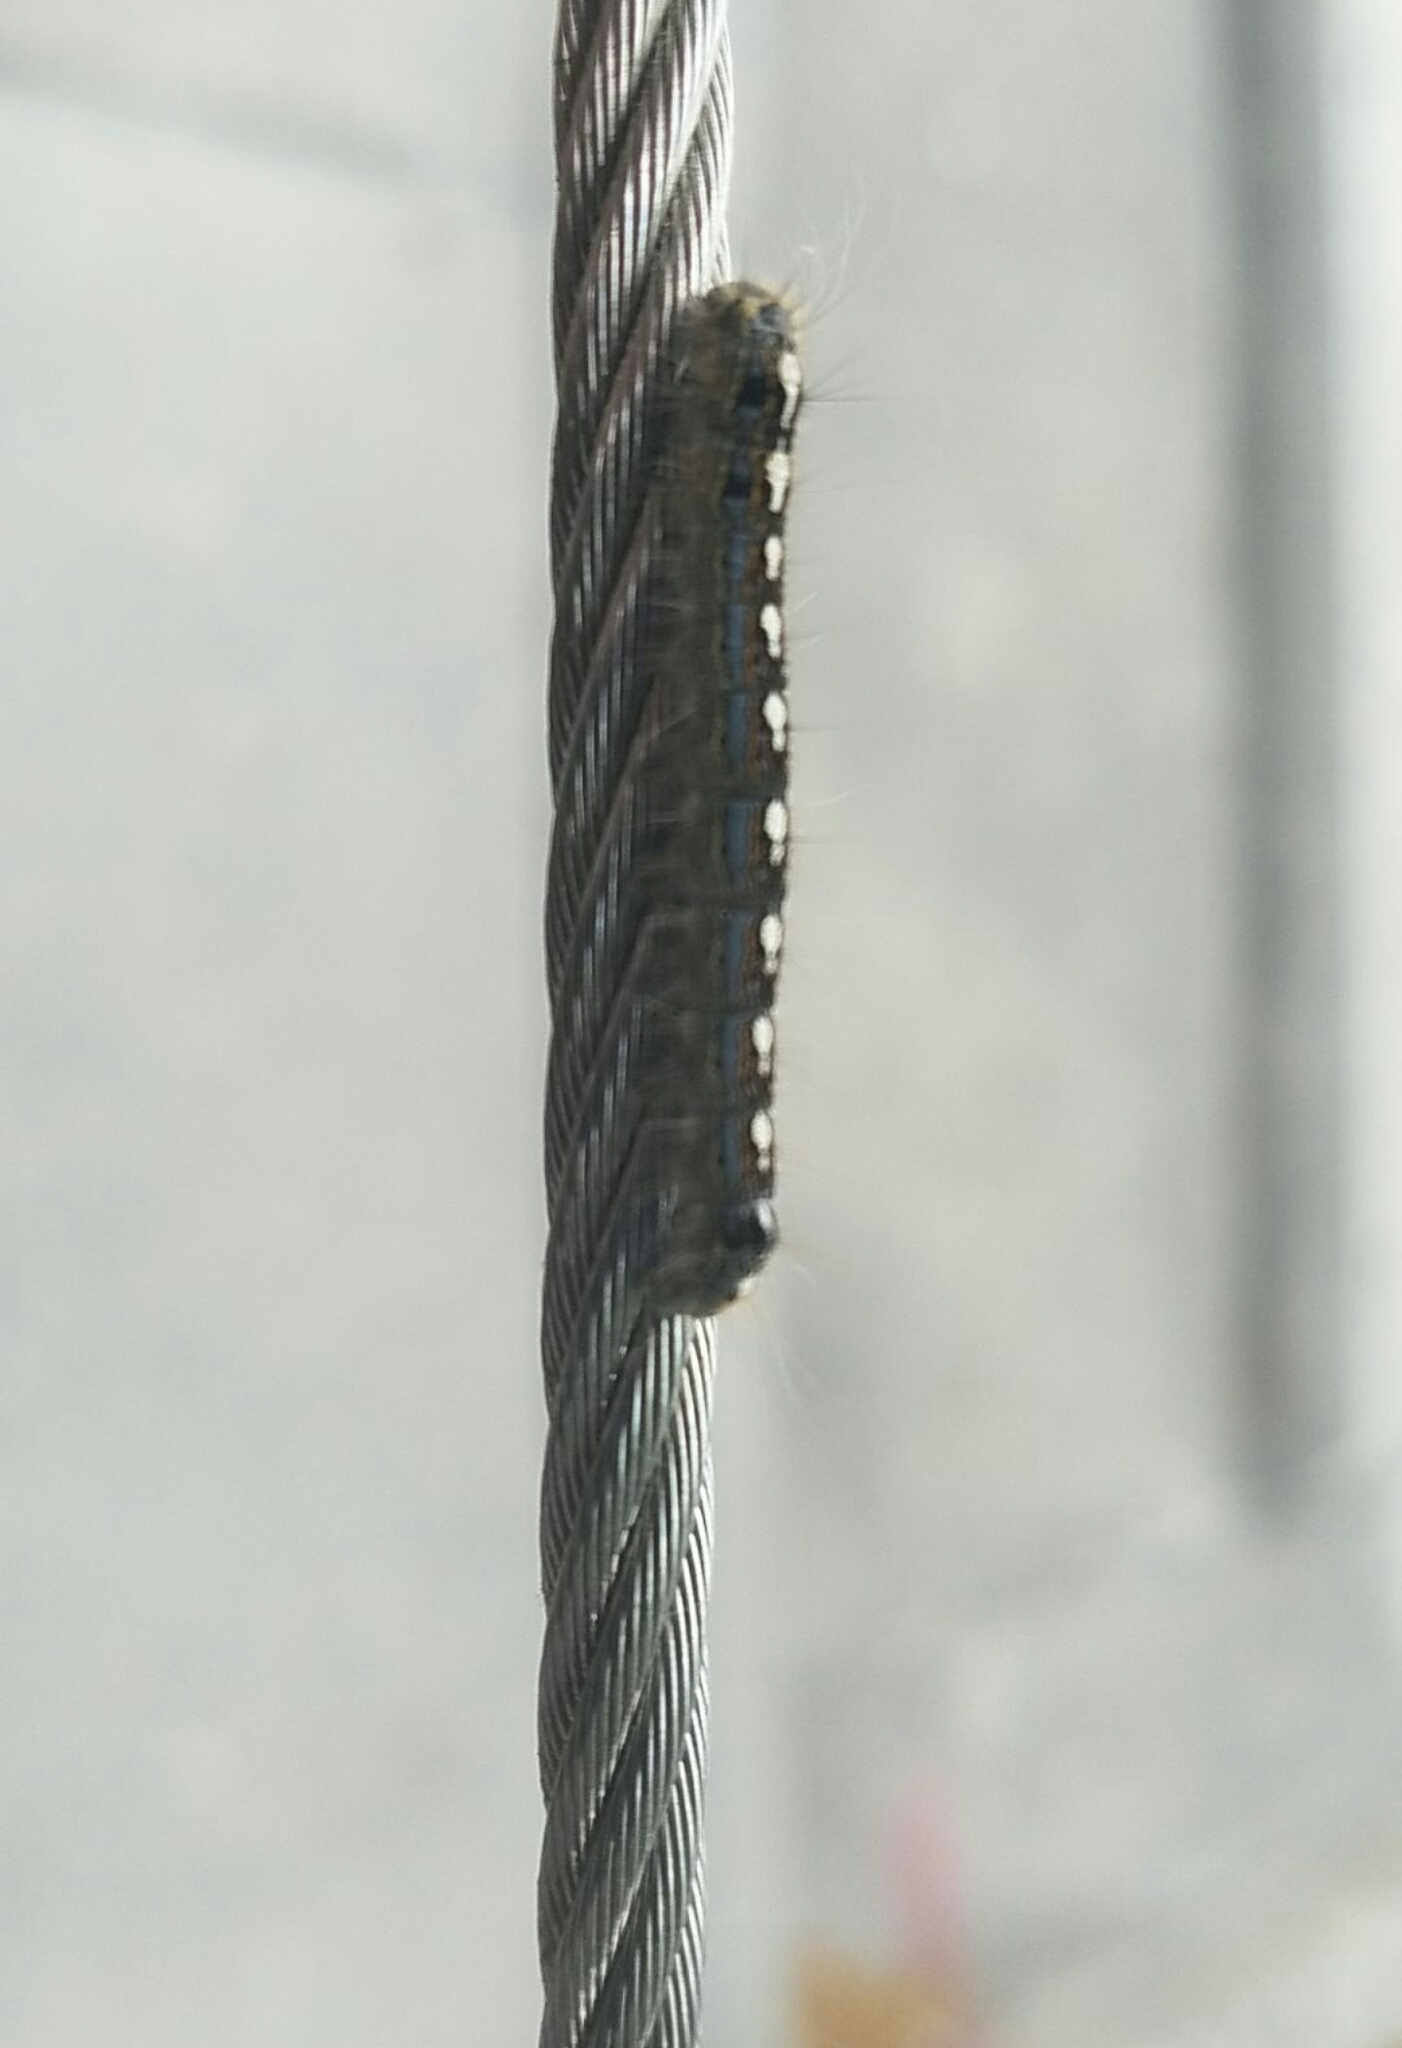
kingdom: Animalia
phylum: Arthropoda
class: Insecta
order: Lepidoptera
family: Lasiocampidae
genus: Malacosoma
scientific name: Malacosoma disstria
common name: Forest tent caterpillar
